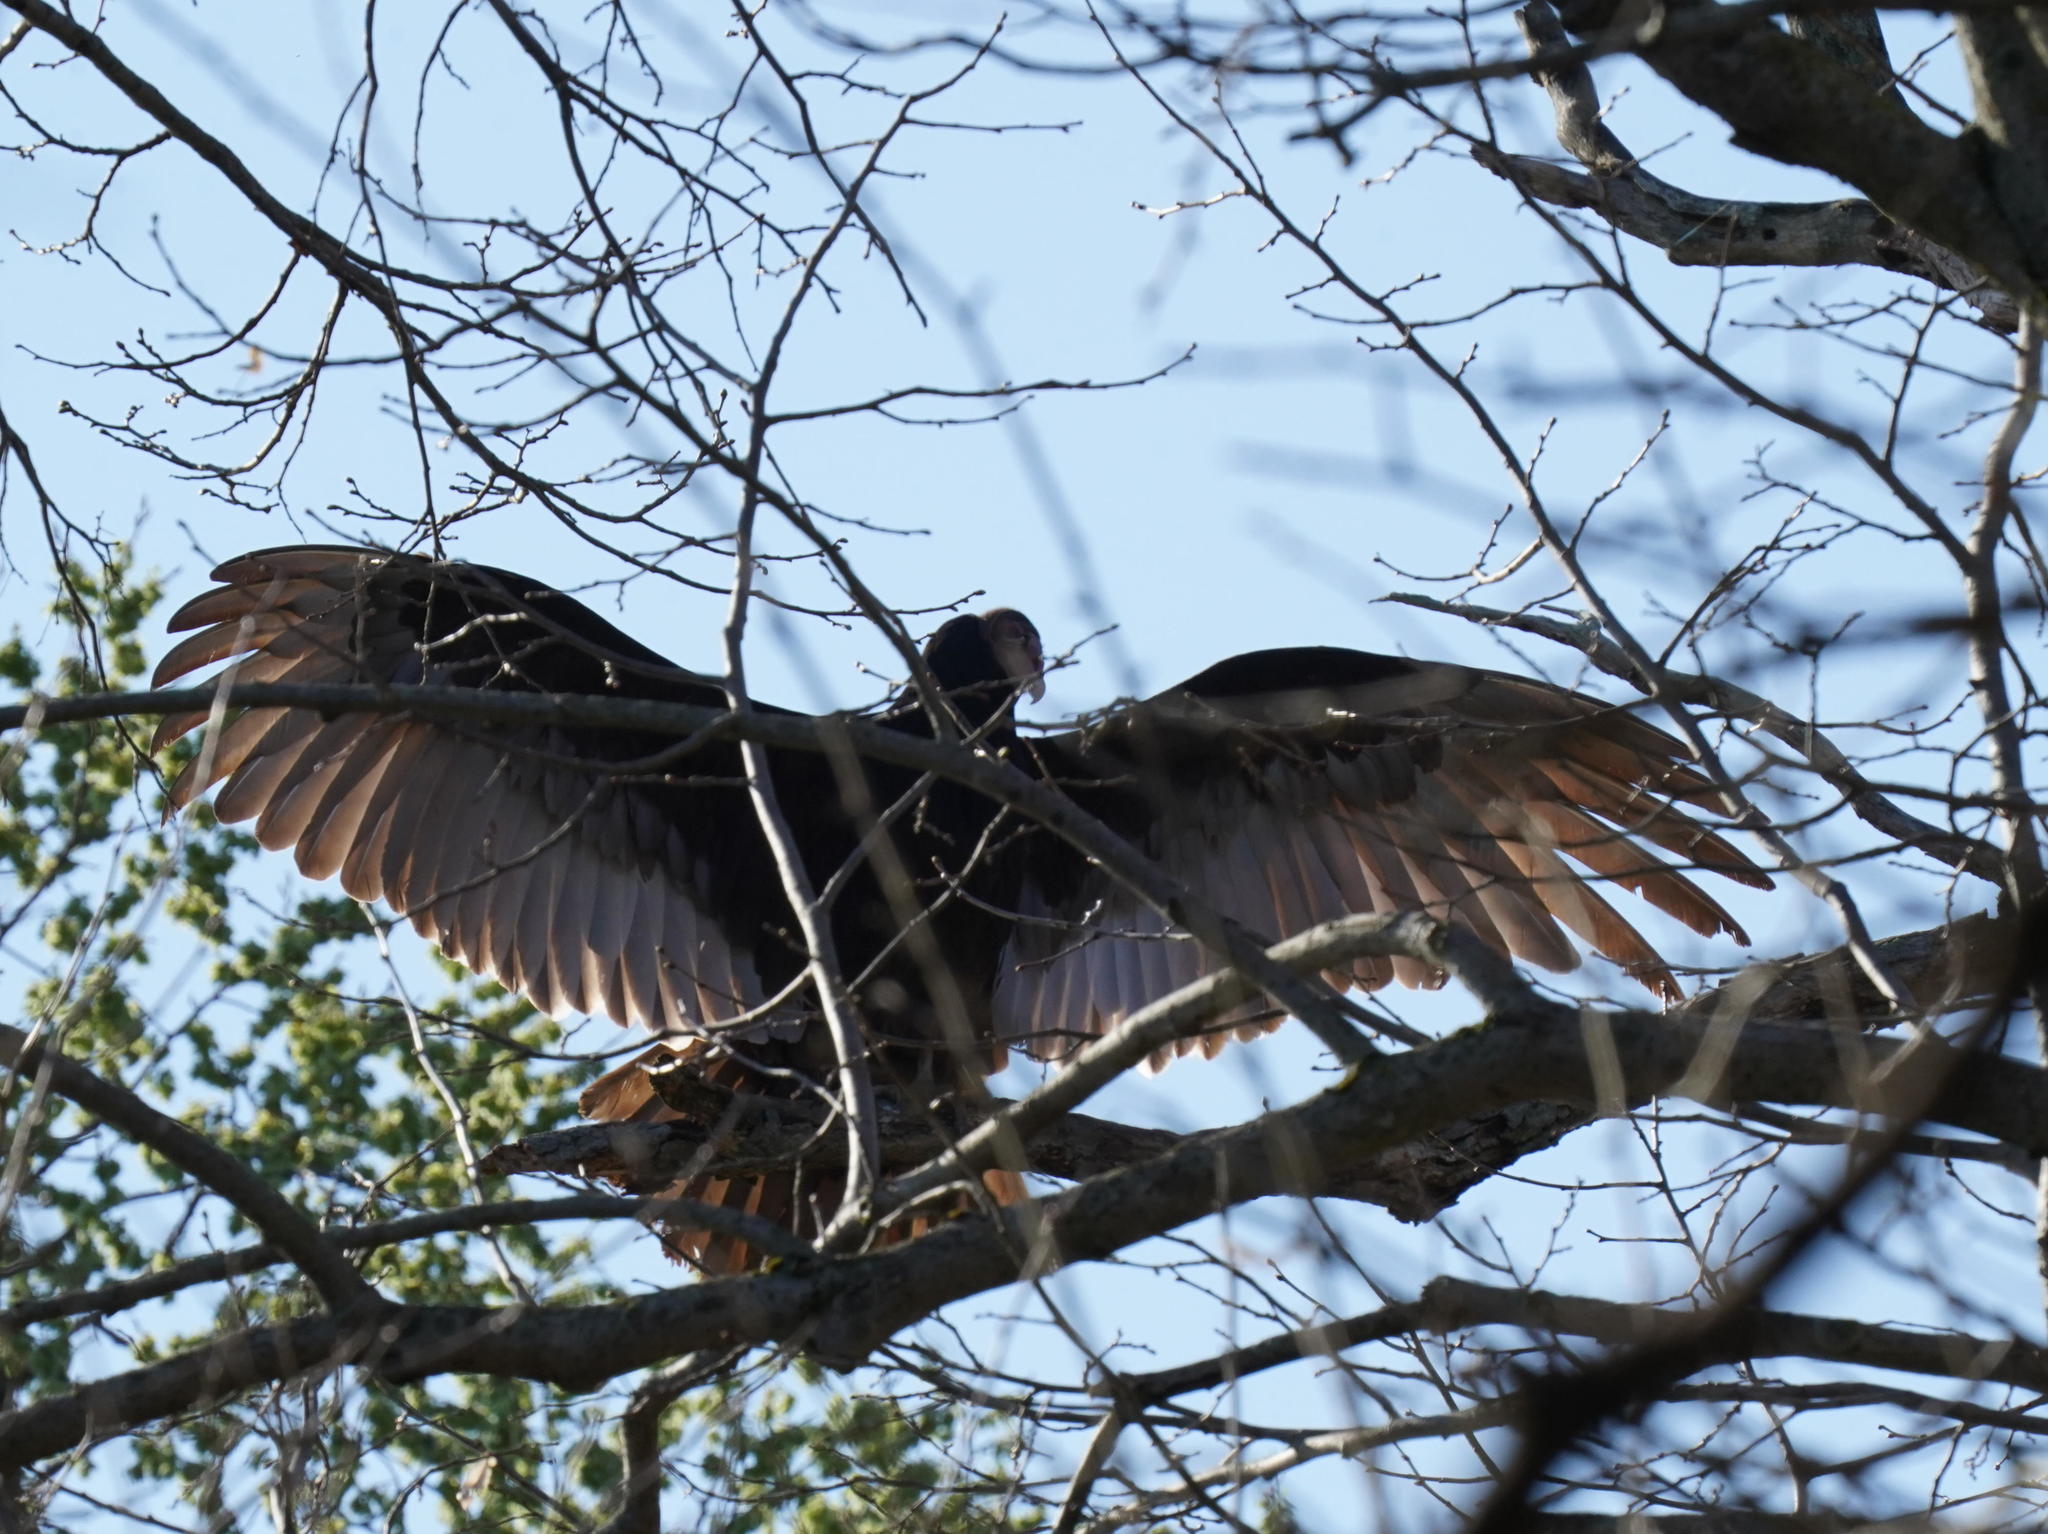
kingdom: Animalia
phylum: Chordata
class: Aves
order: Accipitriformes
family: Cathartidae
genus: Cathartes
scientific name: Cathartes aura
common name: Turkey vulture
